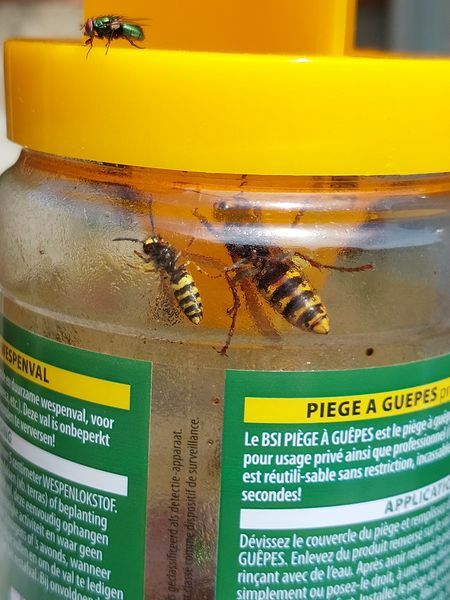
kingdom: Animalia
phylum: Arthropoda
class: Insecta
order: Hymenoptera
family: Vespidae
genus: Vespa
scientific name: Vespa crabro
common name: Hornet
